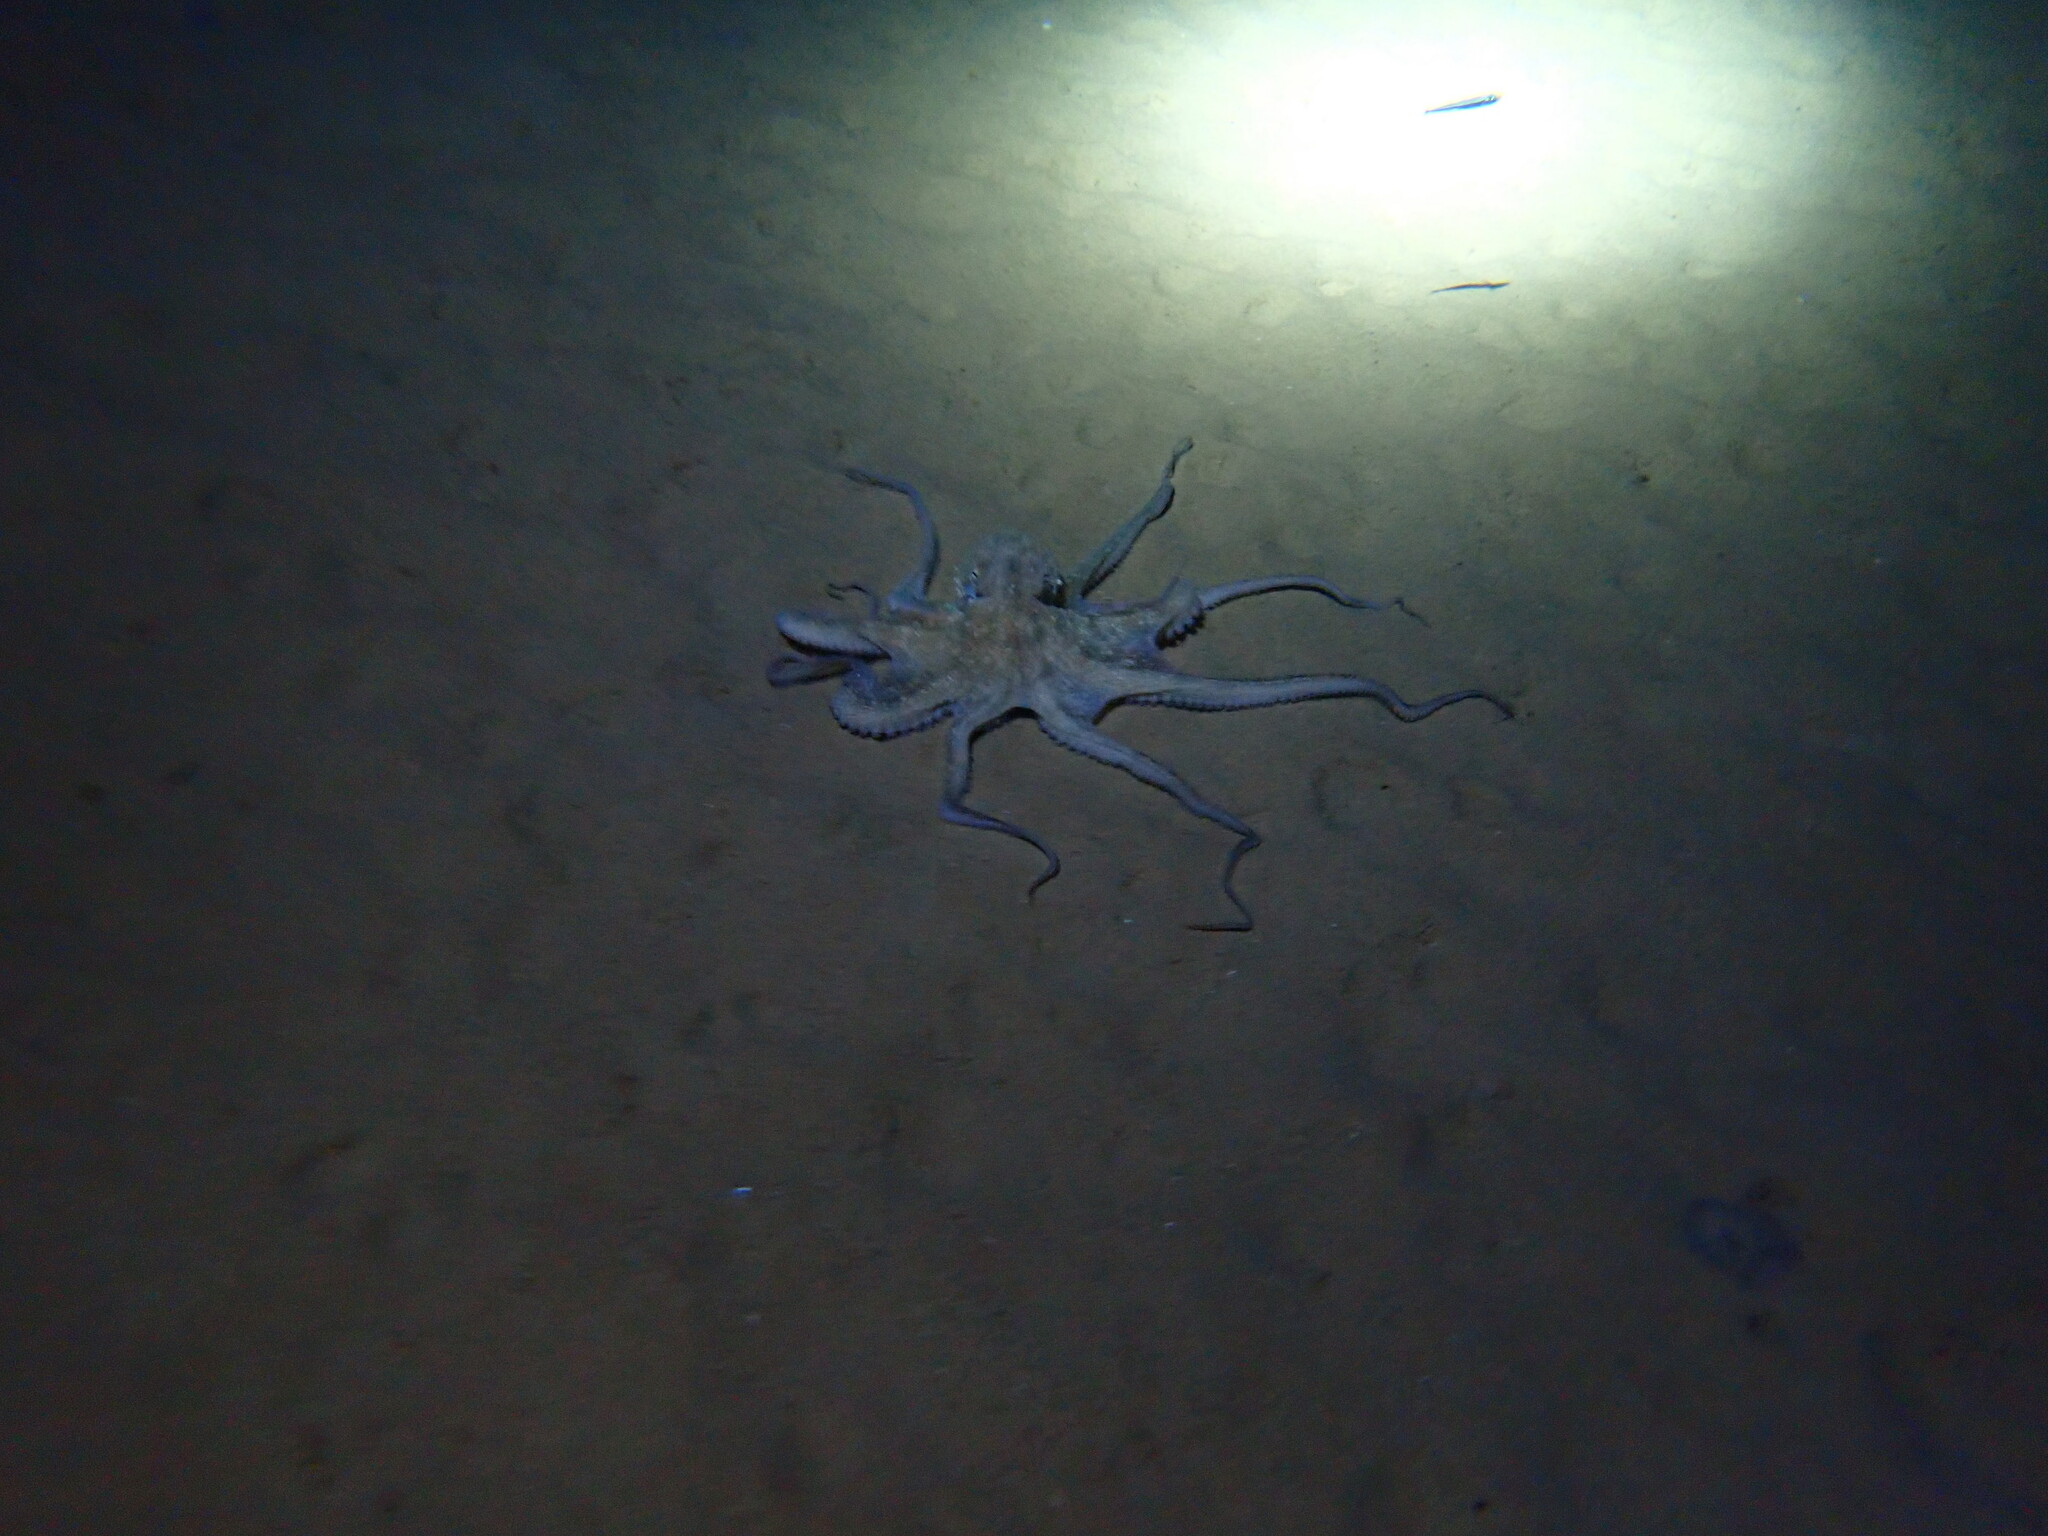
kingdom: Animalia
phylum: Mollusca
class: Cephalopoda
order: Octopoda
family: Octopodidae
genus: Octopus
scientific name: Octopus vulgaris
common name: Common octopus
